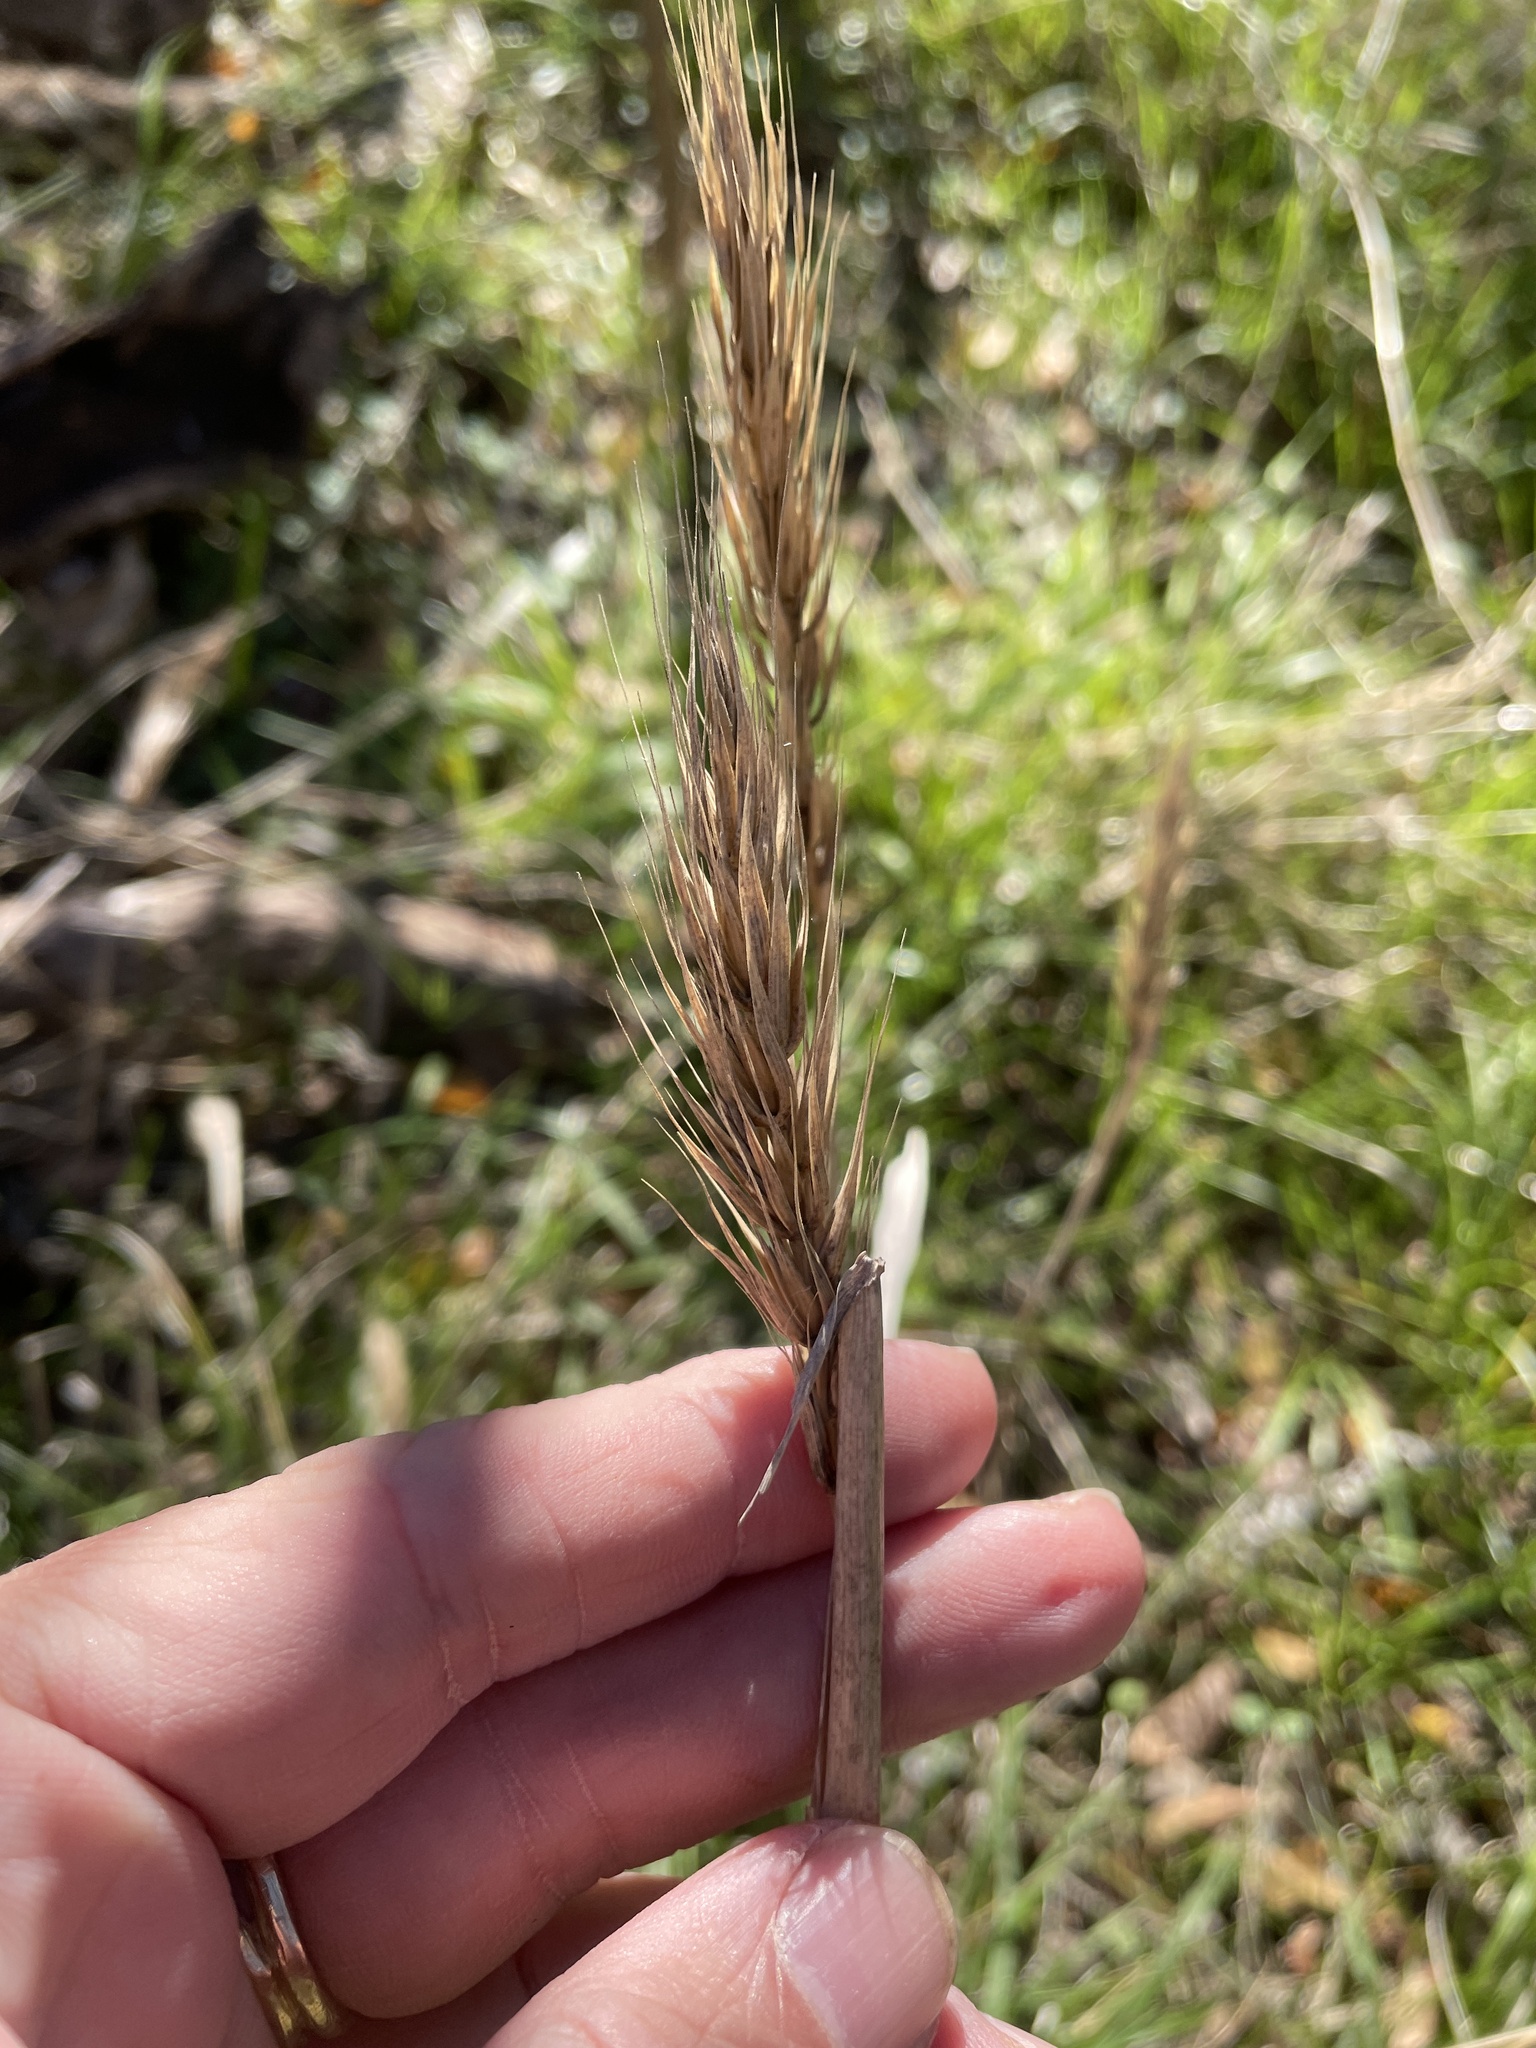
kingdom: Plantae
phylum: Tracheophyta
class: Liliopsida
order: Poales
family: Poaceae
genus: Elymus
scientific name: Elymus virginicus
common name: Common eastern wildrye
